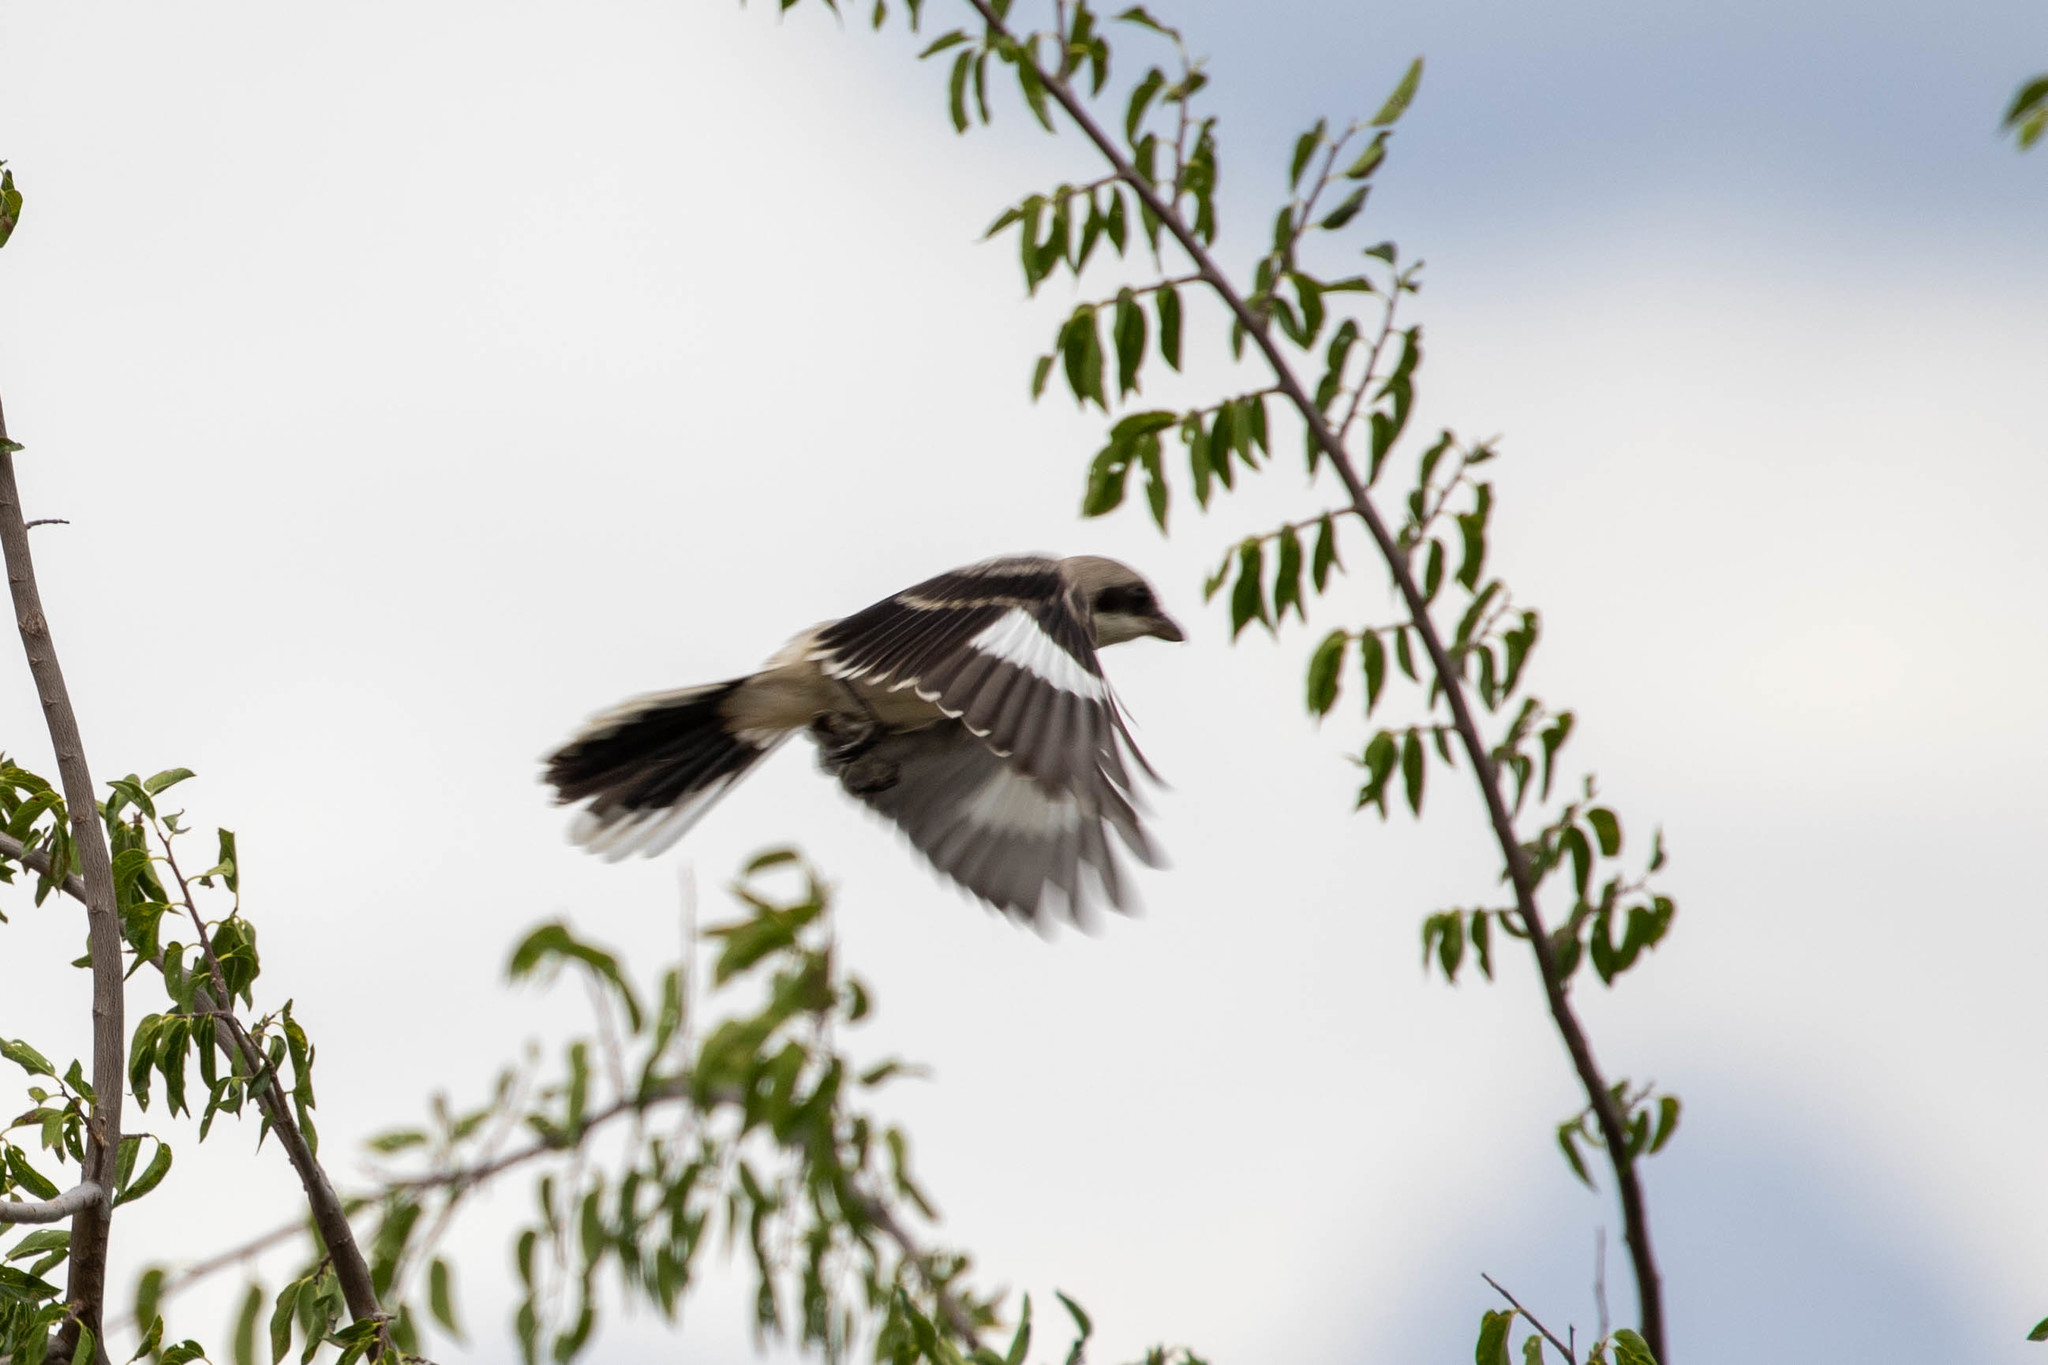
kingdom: Animalia
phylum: Chordata
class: Aves
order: Passeriformes
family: Laniidae
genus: Lanius
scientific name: Lanius ludovicianus
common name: Loggerhead shrike
